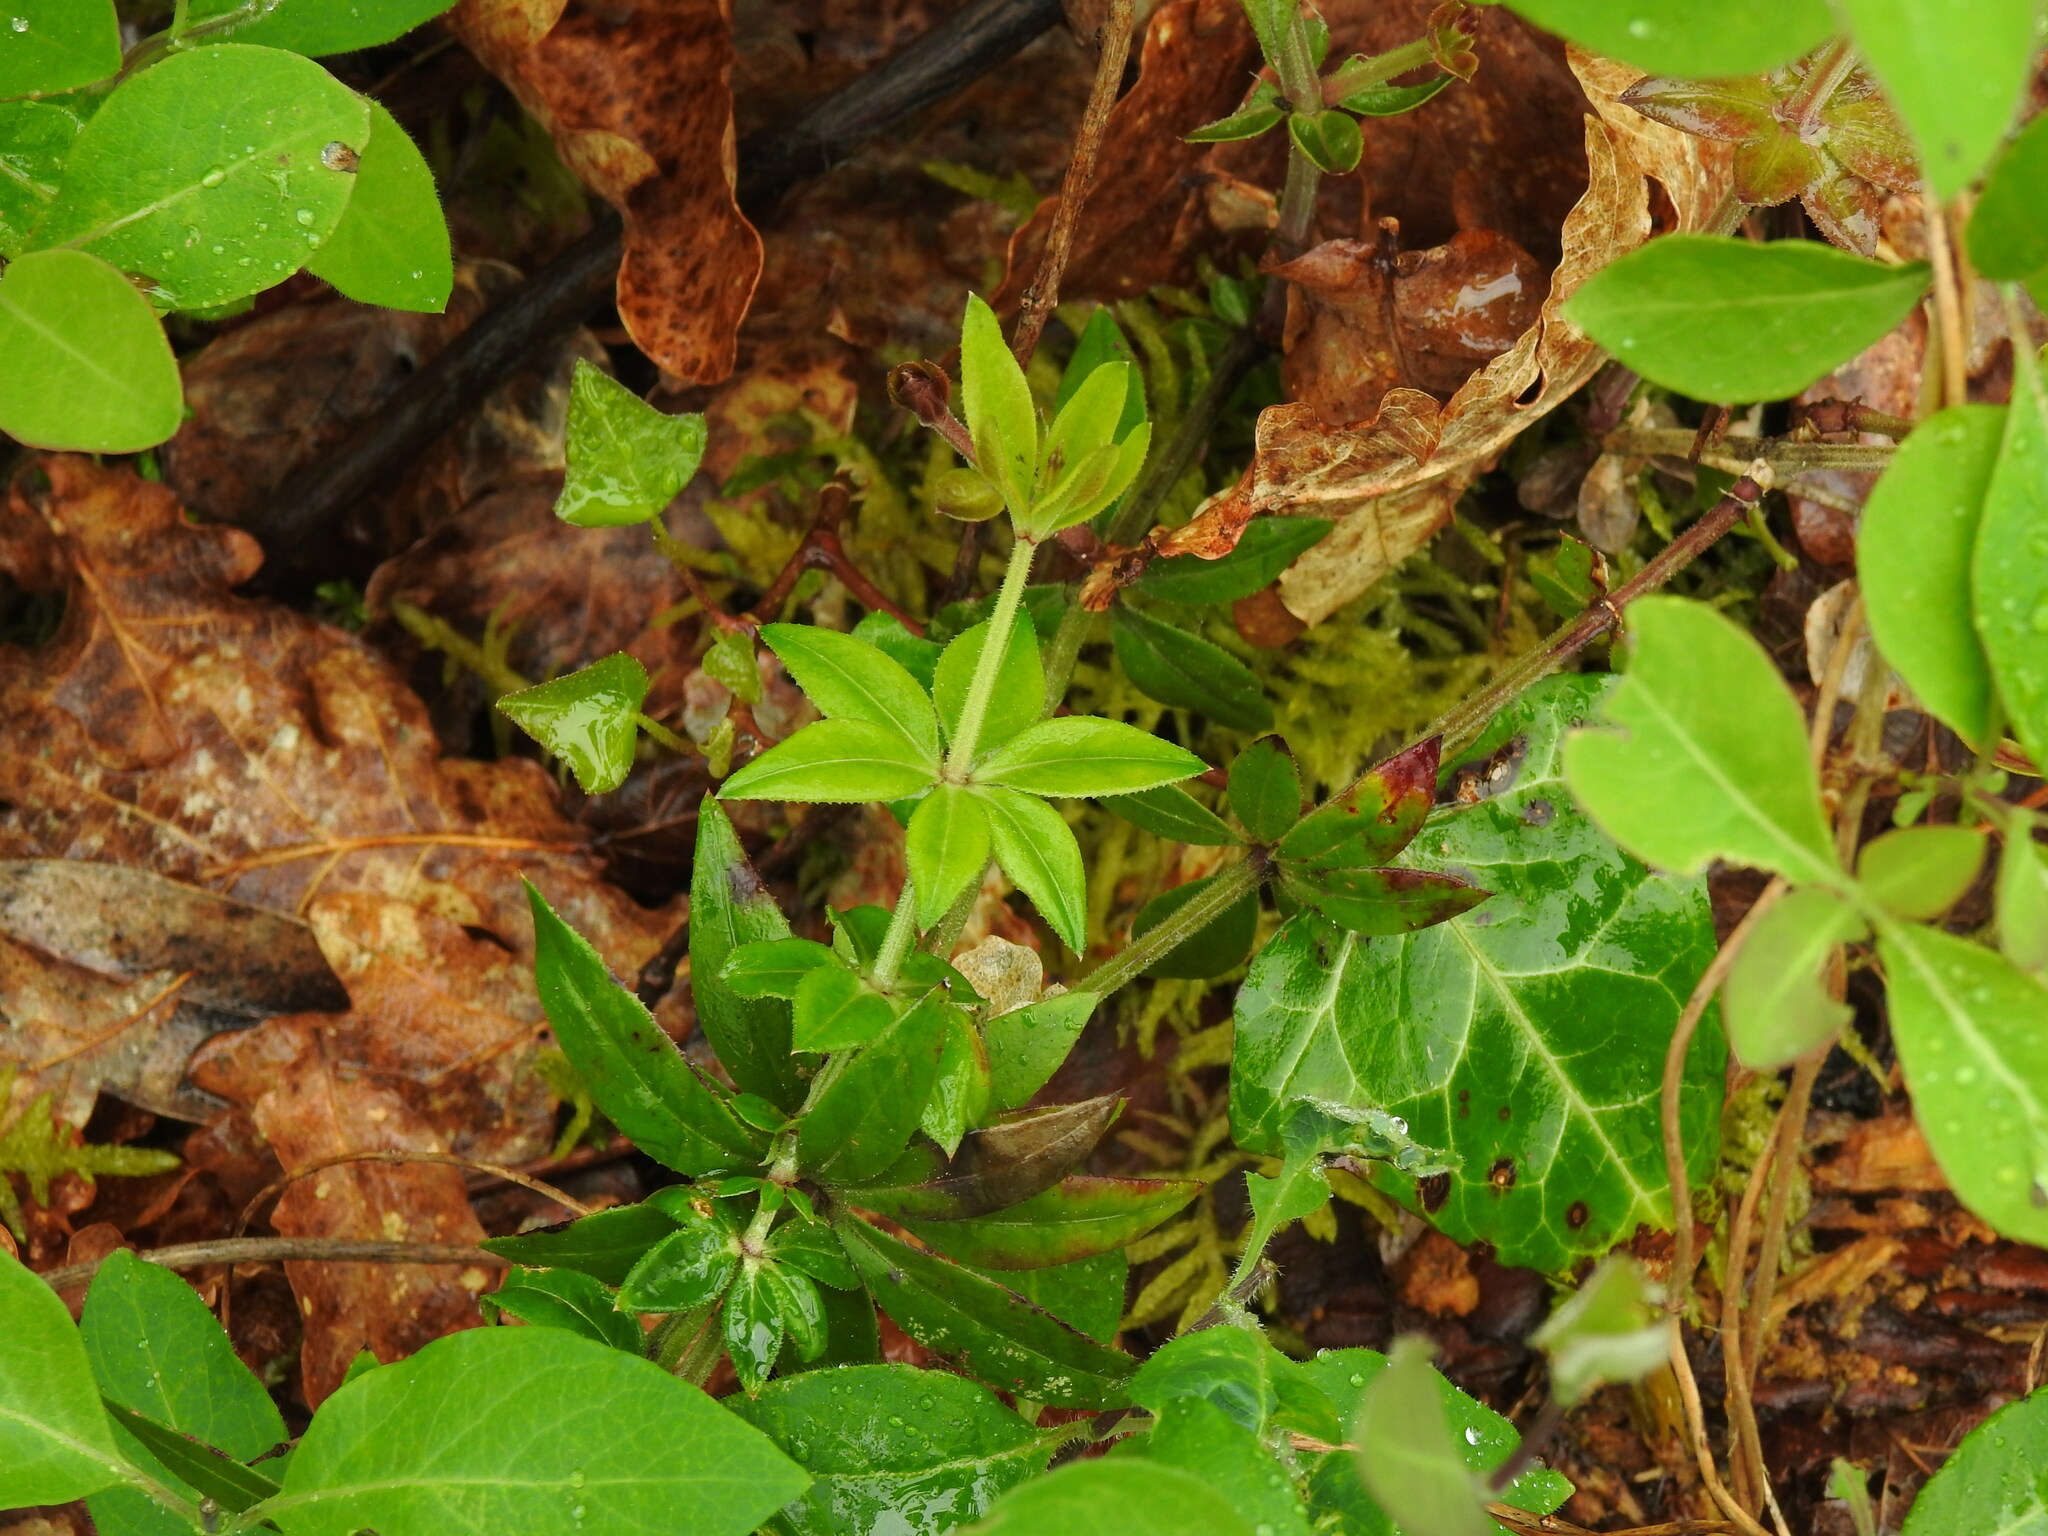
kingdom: Plantae
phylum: Tracheophyta
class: Magnoliopsida
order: Gentianales
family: Rubiaceae
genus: Rubia
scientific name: Rubia peregrina
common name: Wild madder
